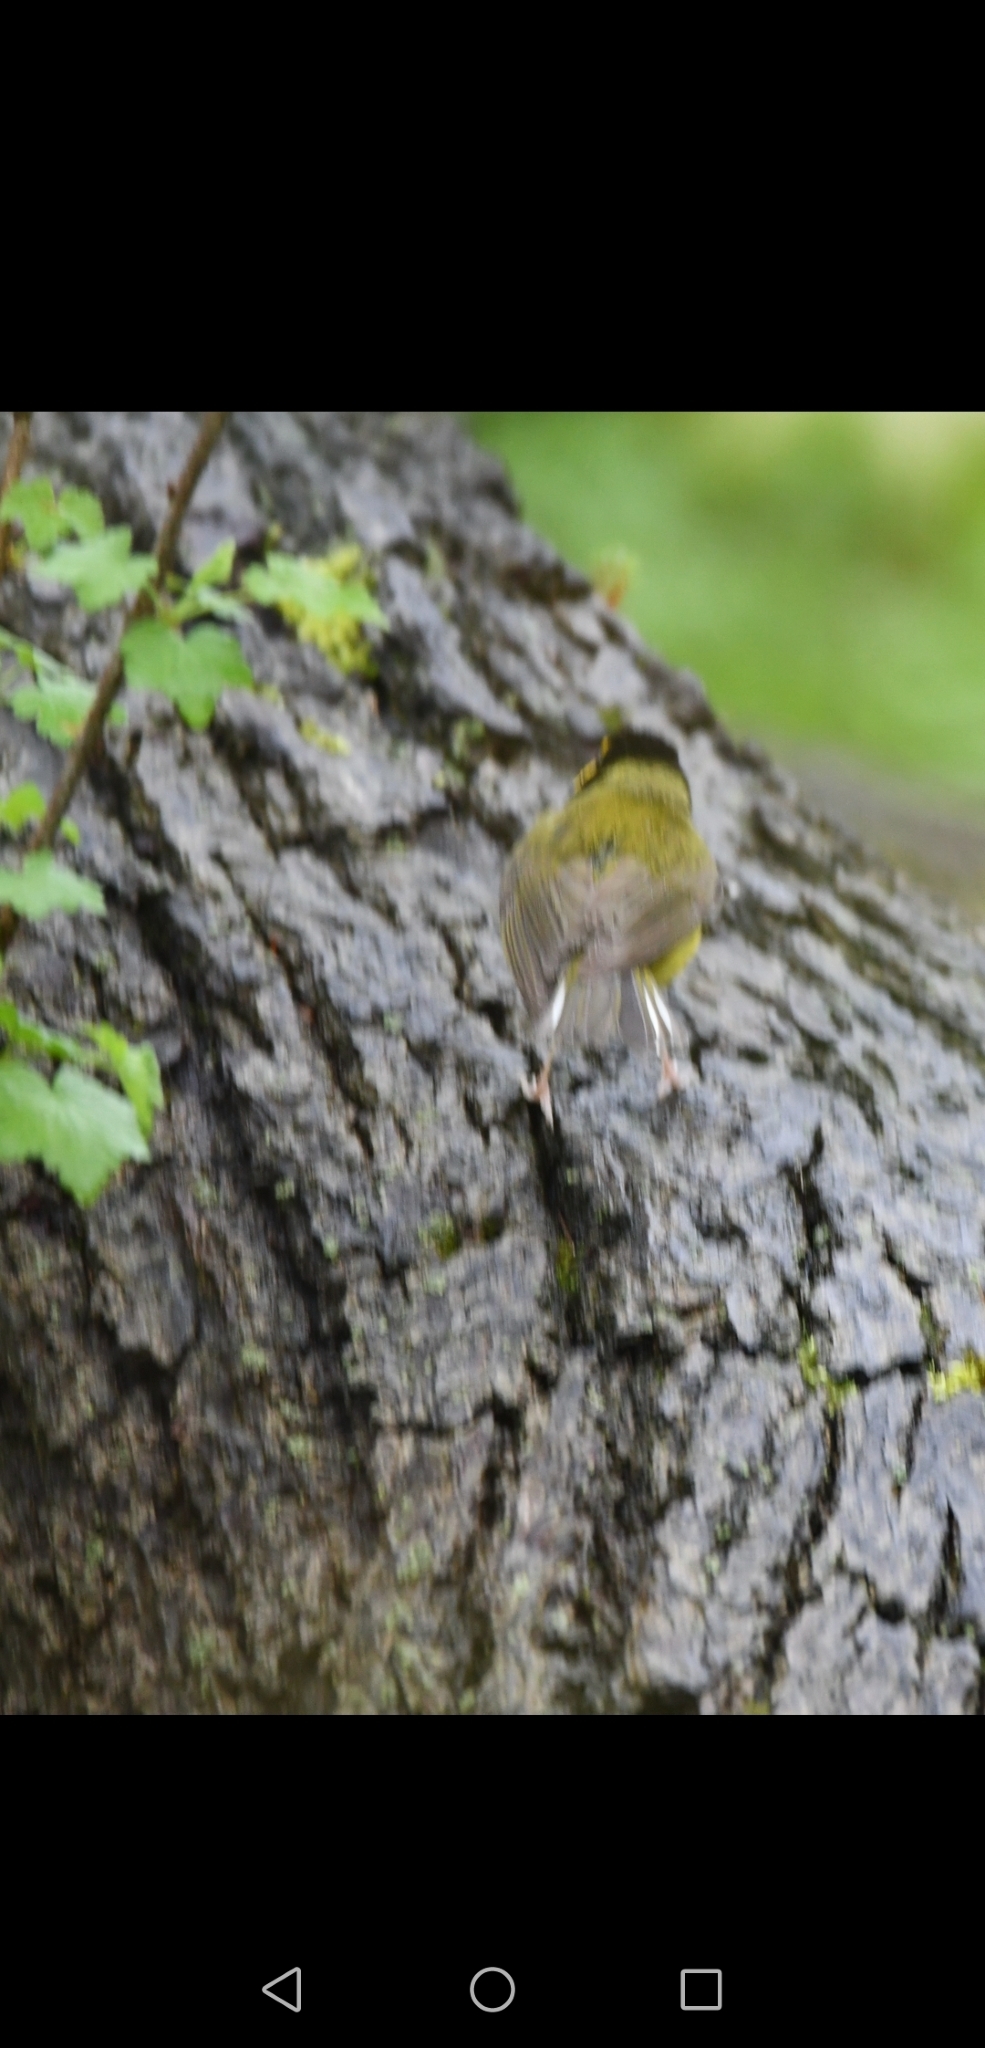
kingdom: Animalia
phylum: Chordata
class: Aves
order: Passeriformes
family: Parulidae
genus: Setophaga
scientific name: Setophaga citrina
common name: Hooded warbler
